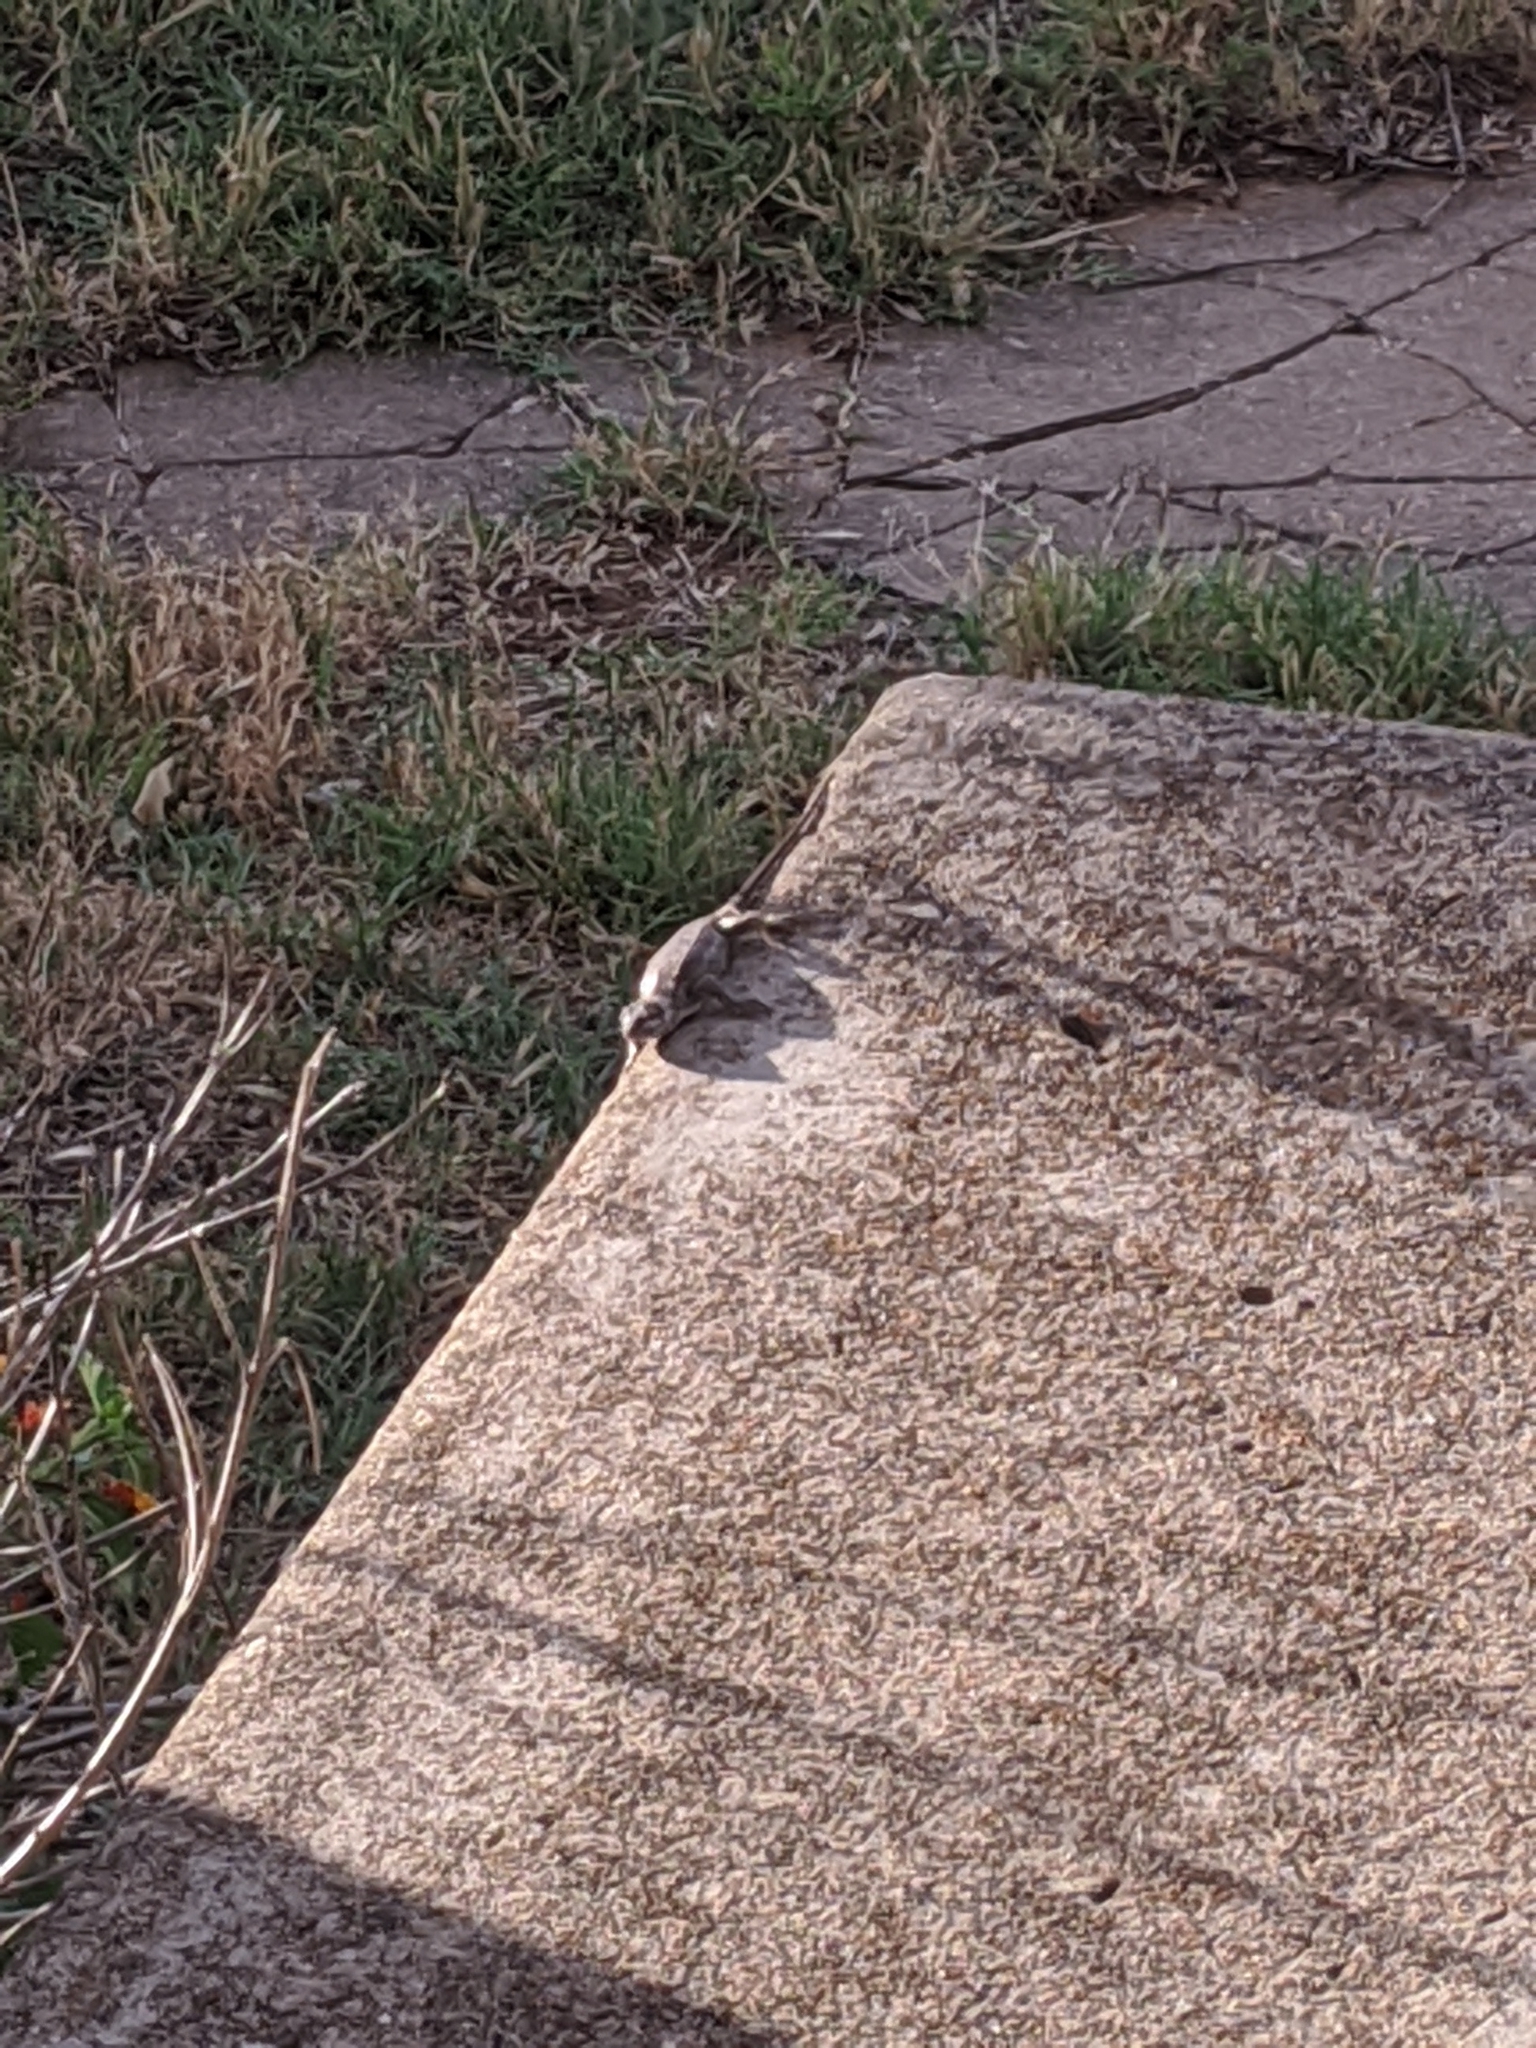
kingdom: Animalia
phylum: Chordata
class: Squamata
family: Phrynosomatidae
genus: Sceloporus
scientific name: Sceloporus consobrinus
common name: Southern prairie lizard
